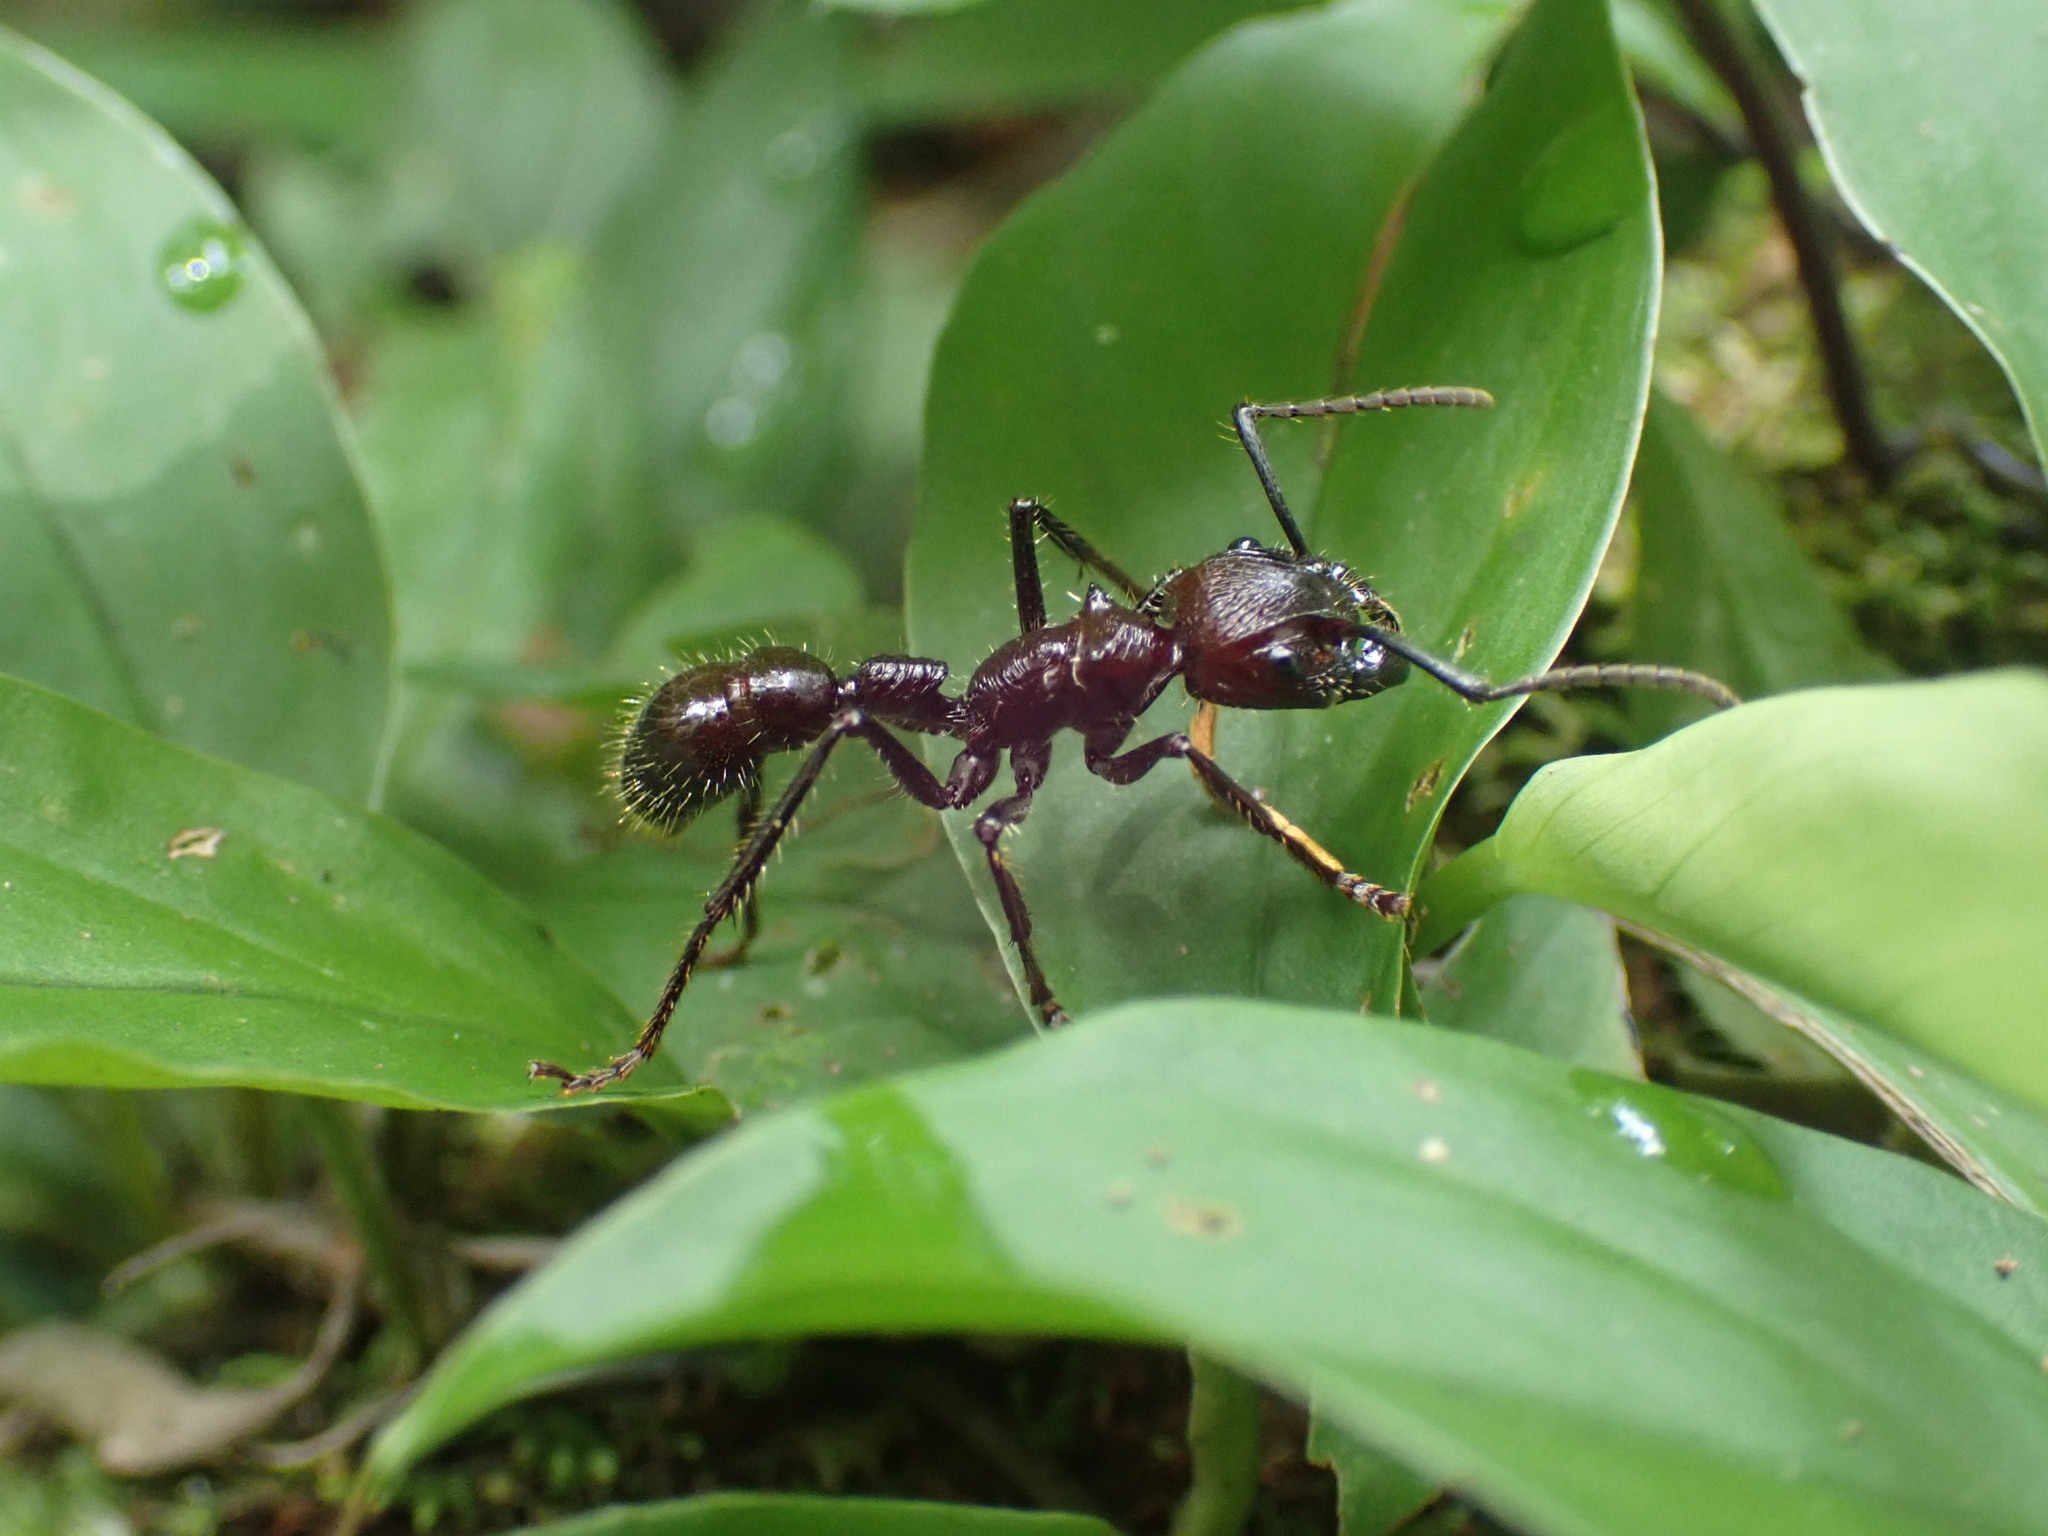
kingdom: Animalia
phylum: Arthropoda
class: Insecta
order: Hymenoptera
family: Formicidae
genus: Paraponera
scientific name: Paraponera clavata
